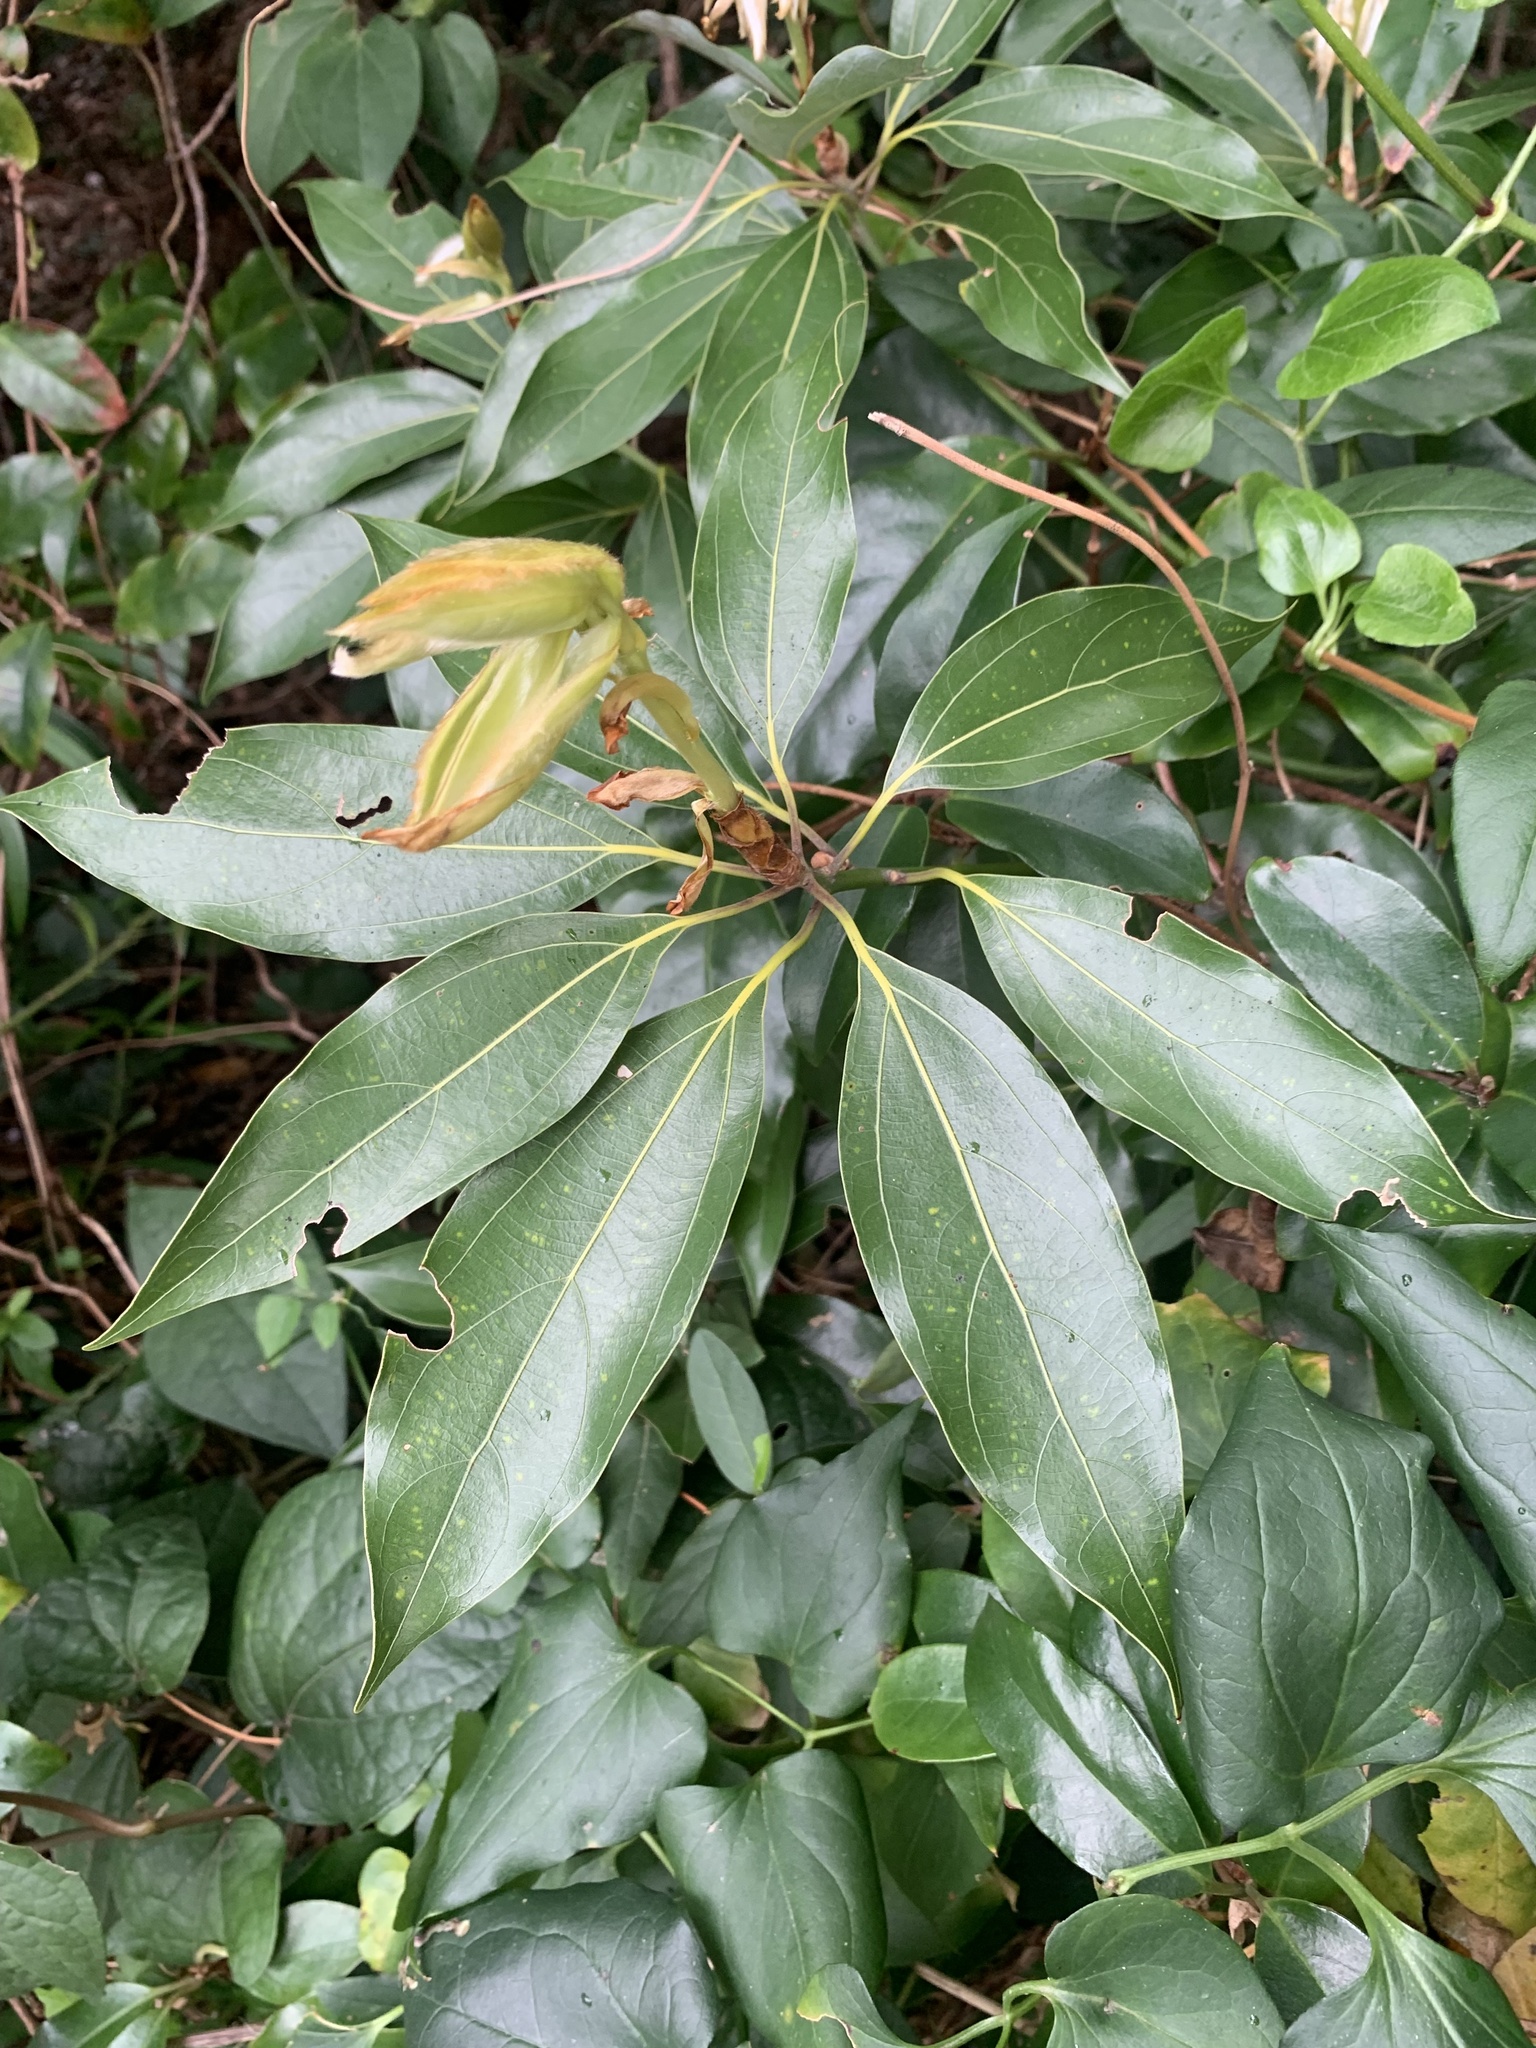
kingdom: Plantae
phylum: Tracheophyta
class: Magnoliopsida
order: Laurales
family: Lauraceae
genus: Neolitsea
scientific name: Neolitsea sericea
